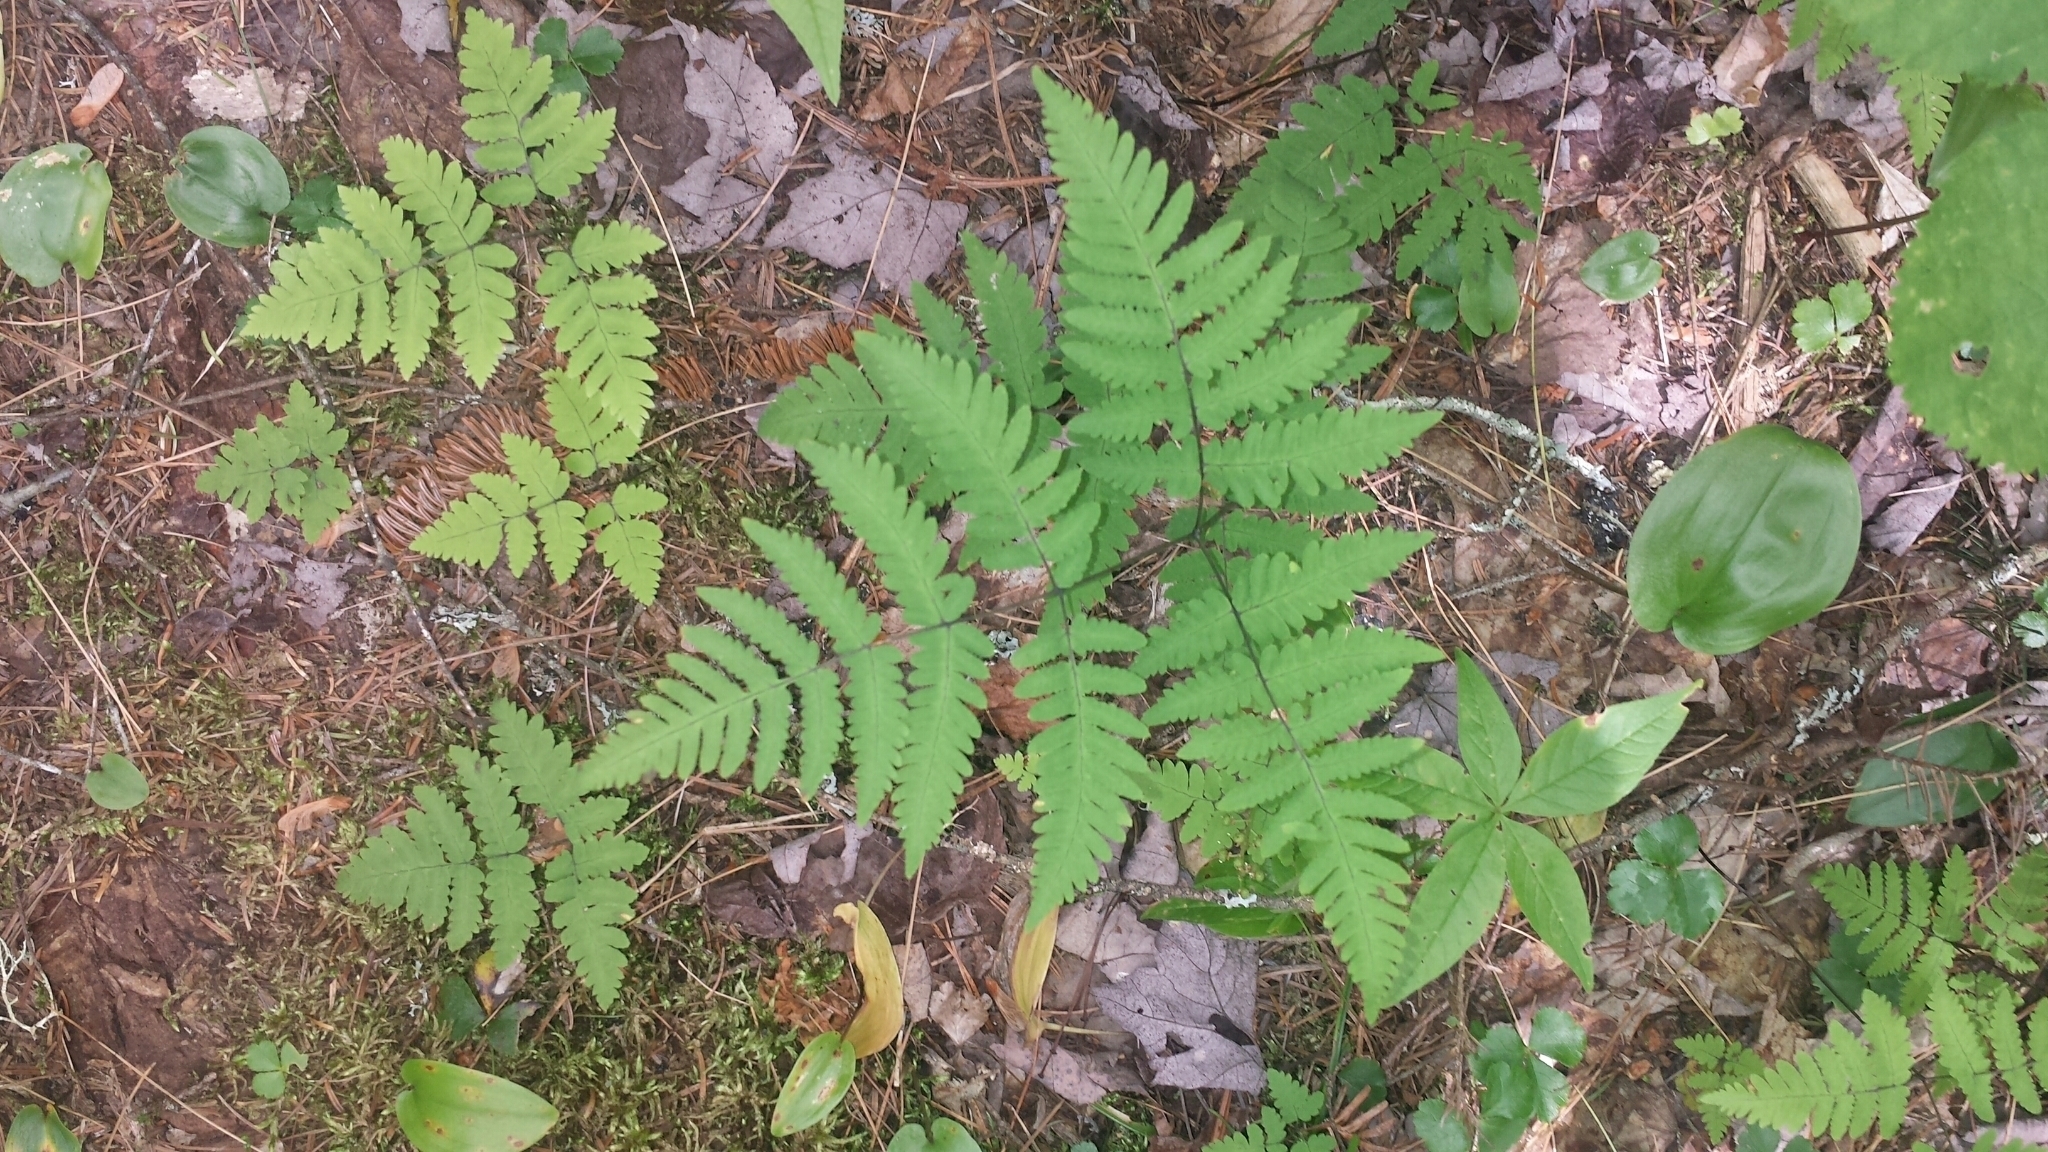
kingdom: Plantae
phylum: Tracheophyta
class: Polypodiopsida
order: Polypodiales
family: Cystopteridaceae
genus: Gymnocarpium
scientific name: Gymnocarpium dryopteris
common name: Oak fern
